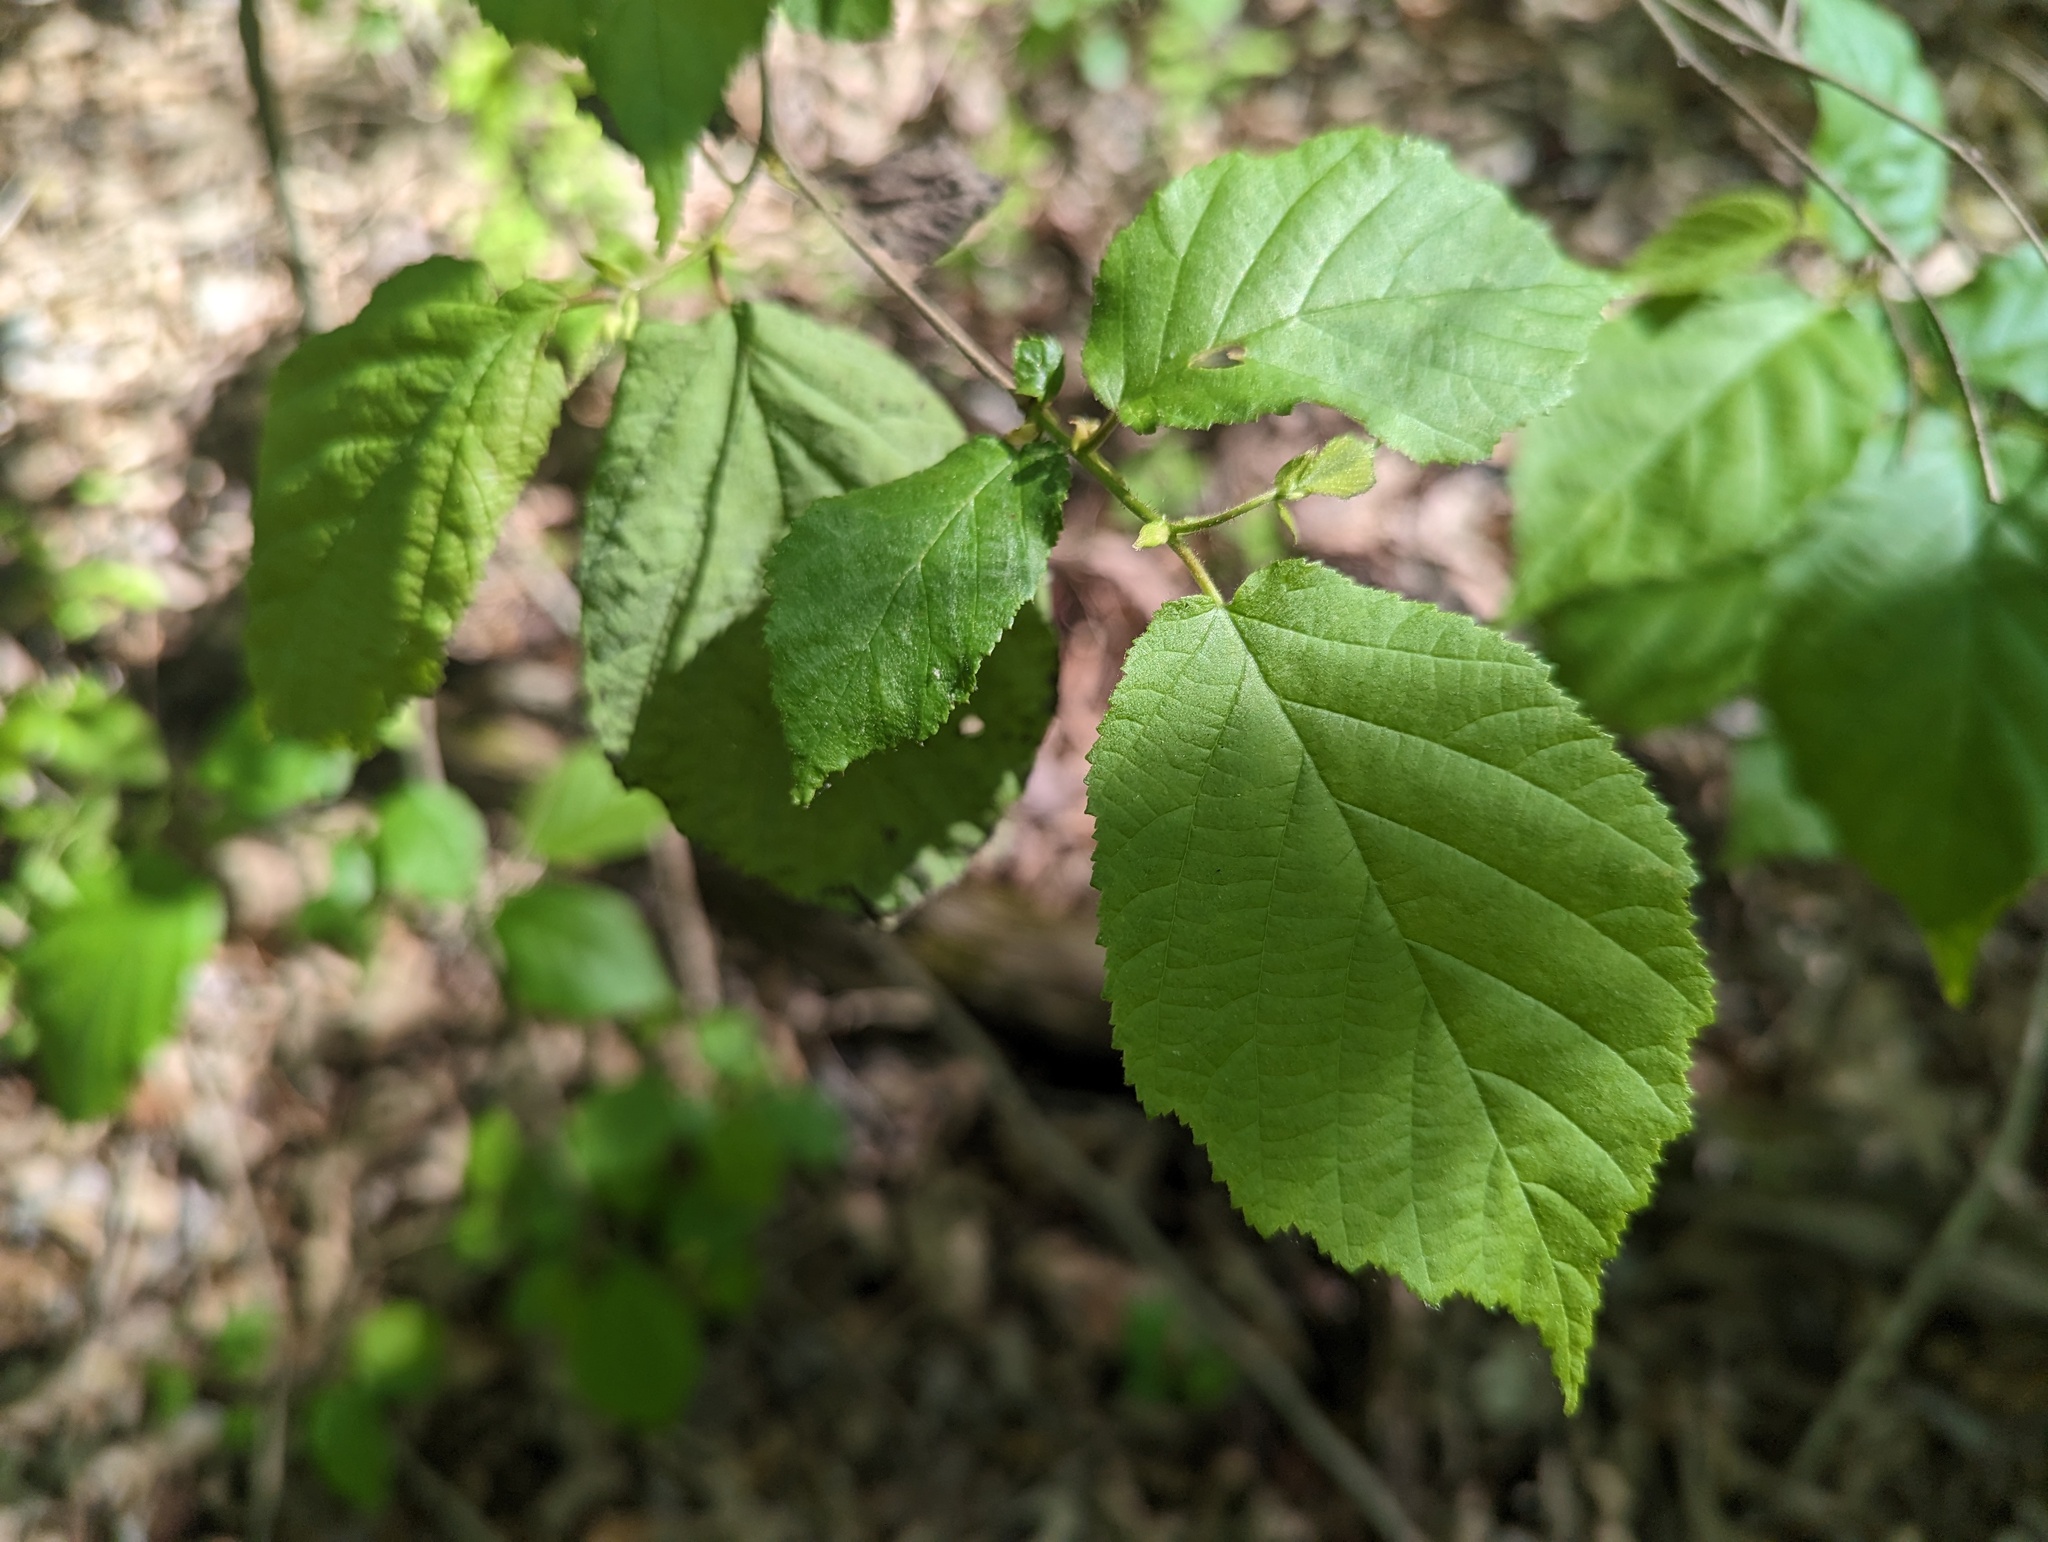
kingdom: Plantae
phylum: Tracheophyta
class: Magnoliopsida
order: Fagales
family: Betulaceae
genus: Corylus
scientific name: Corylus americana
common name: American hazel
